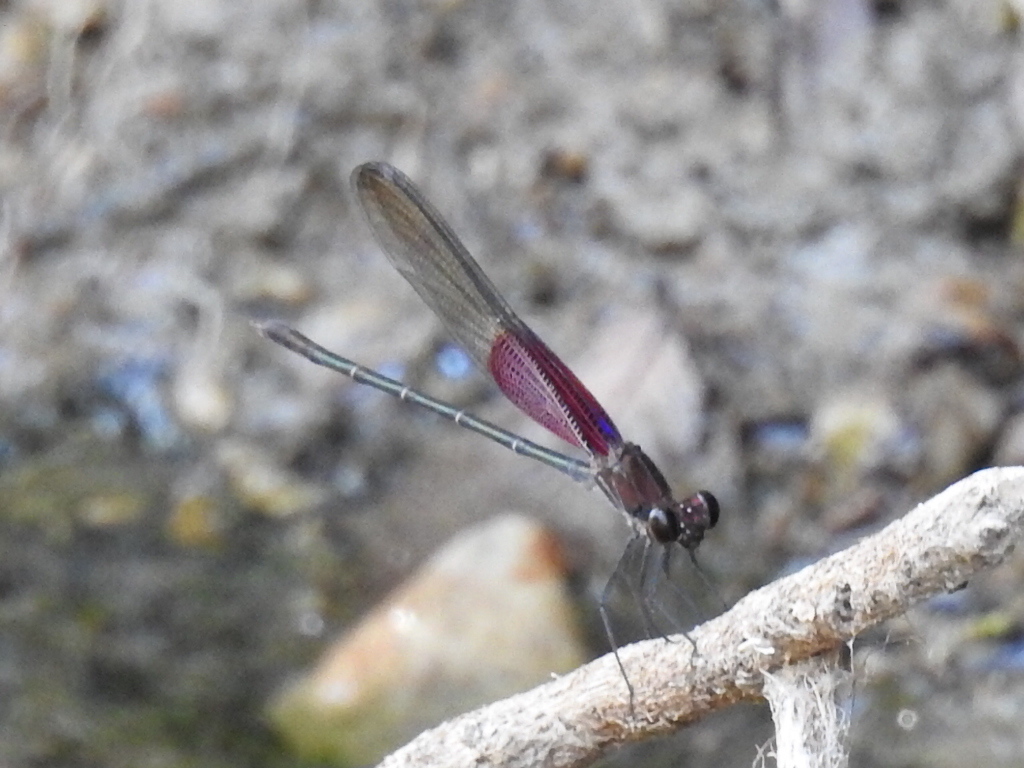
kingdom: Animalia
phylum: Arthropoda
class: Insecta
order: Odonata
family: Calopterygidae
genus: Hetaerina
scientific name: Hetaerina americana
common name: American rubyspot
